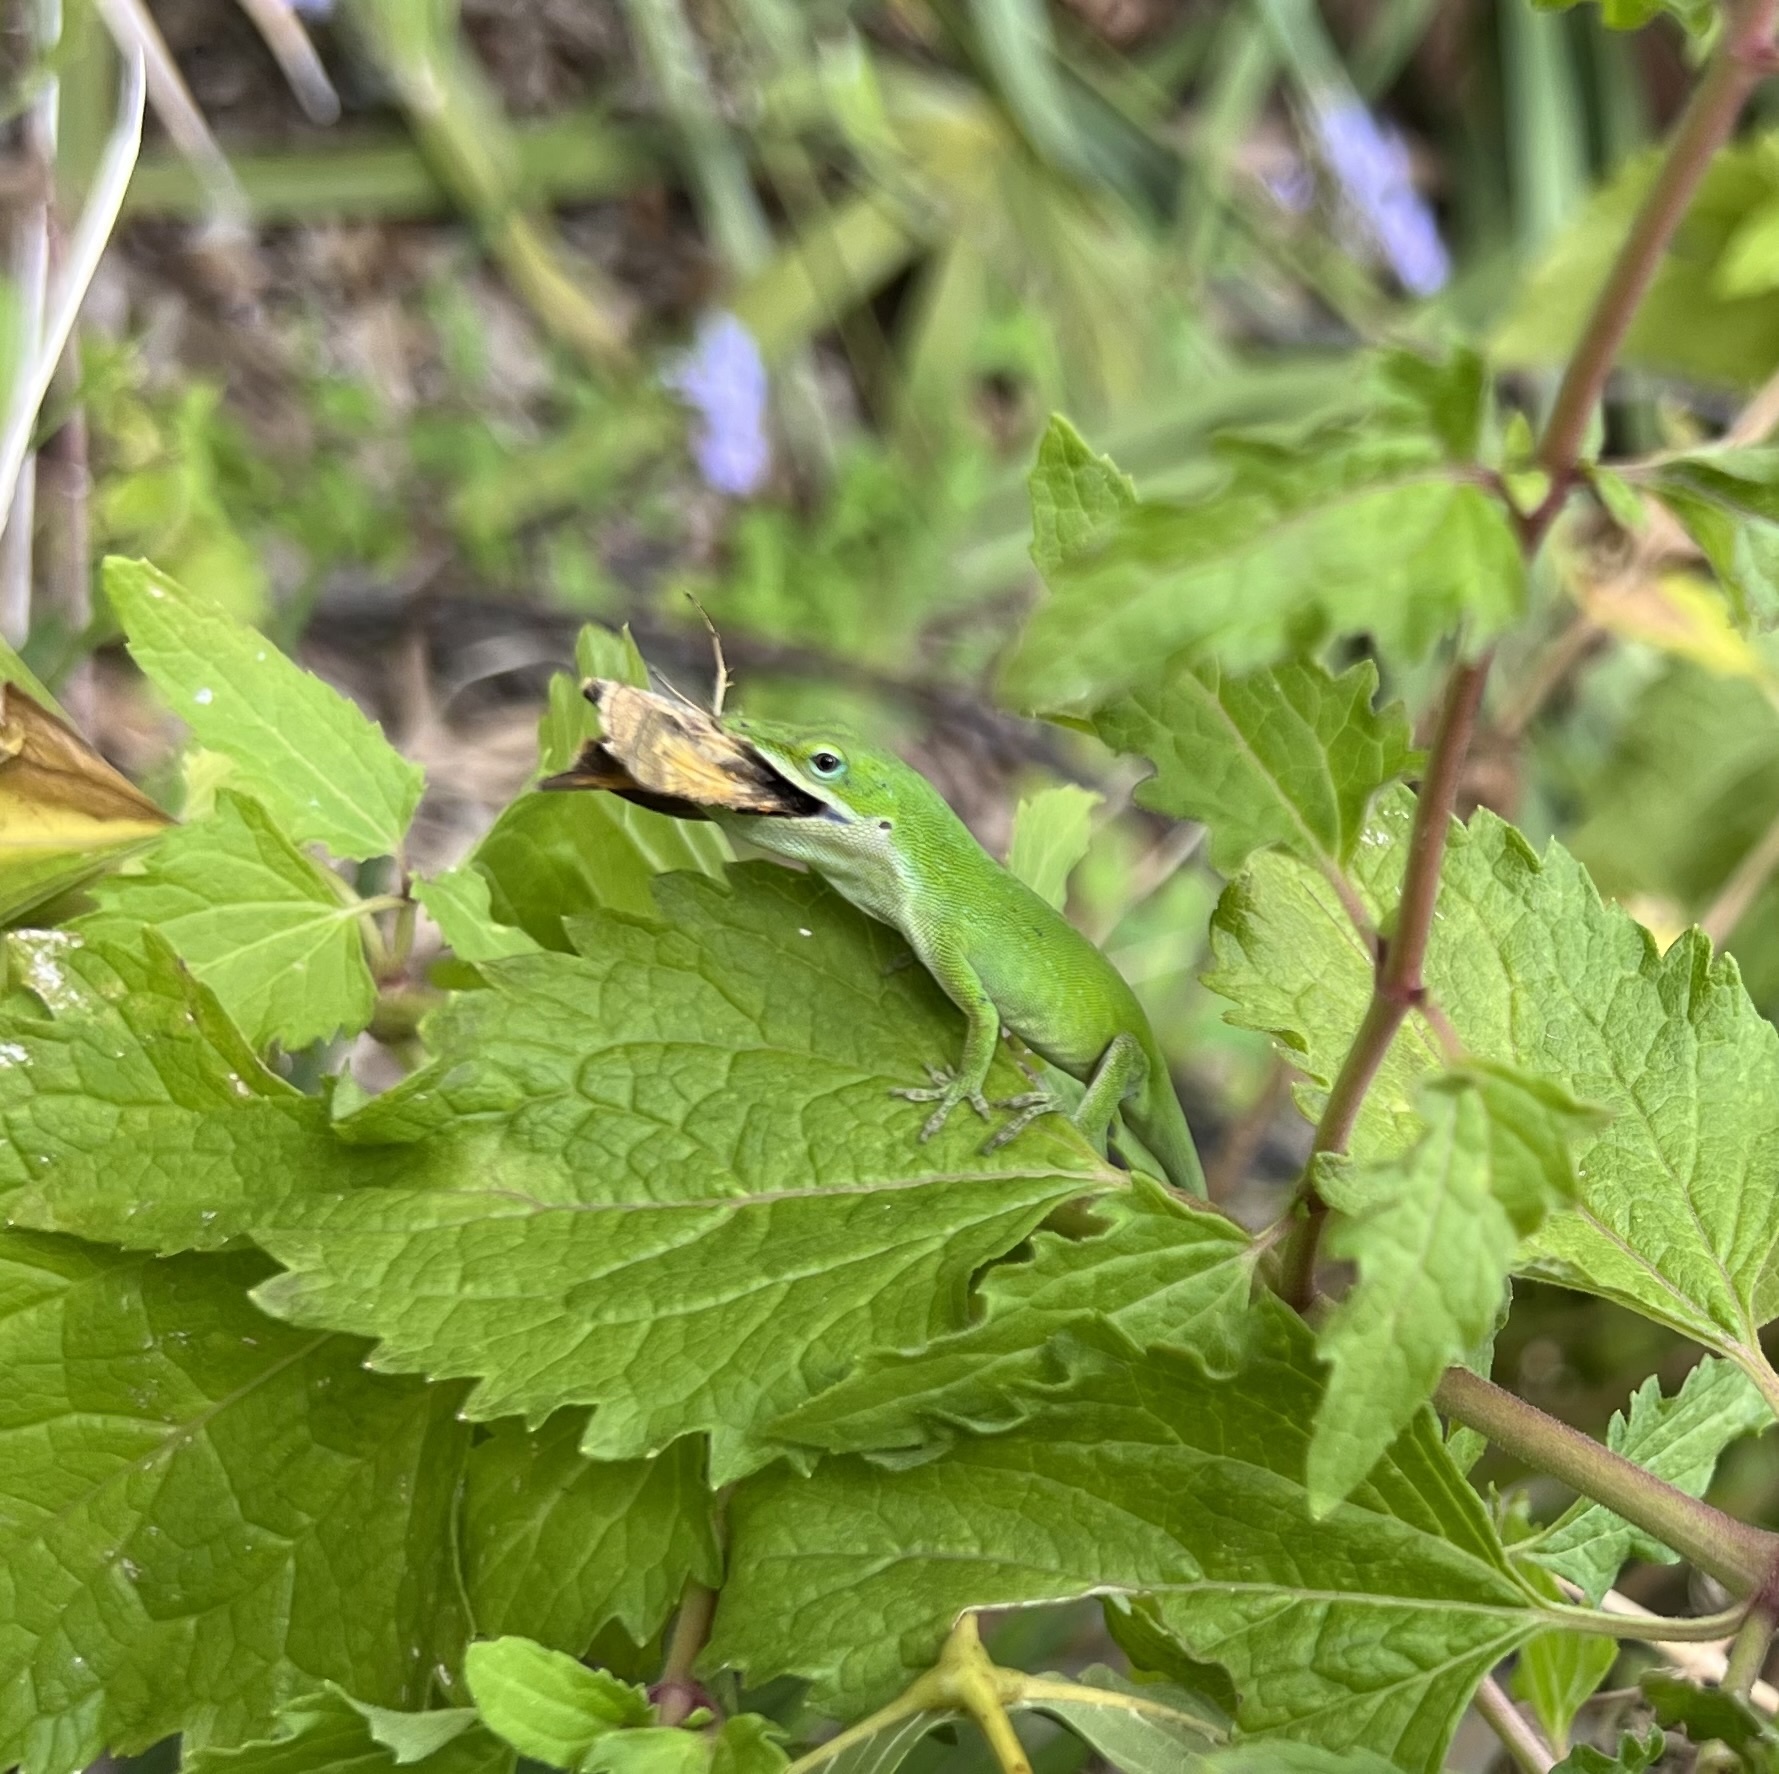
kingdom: Animalia
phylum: Chordata
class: Squamata
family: Dactyloidae
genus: Anolis
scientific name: Anolis carolinensis
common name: Green anole
